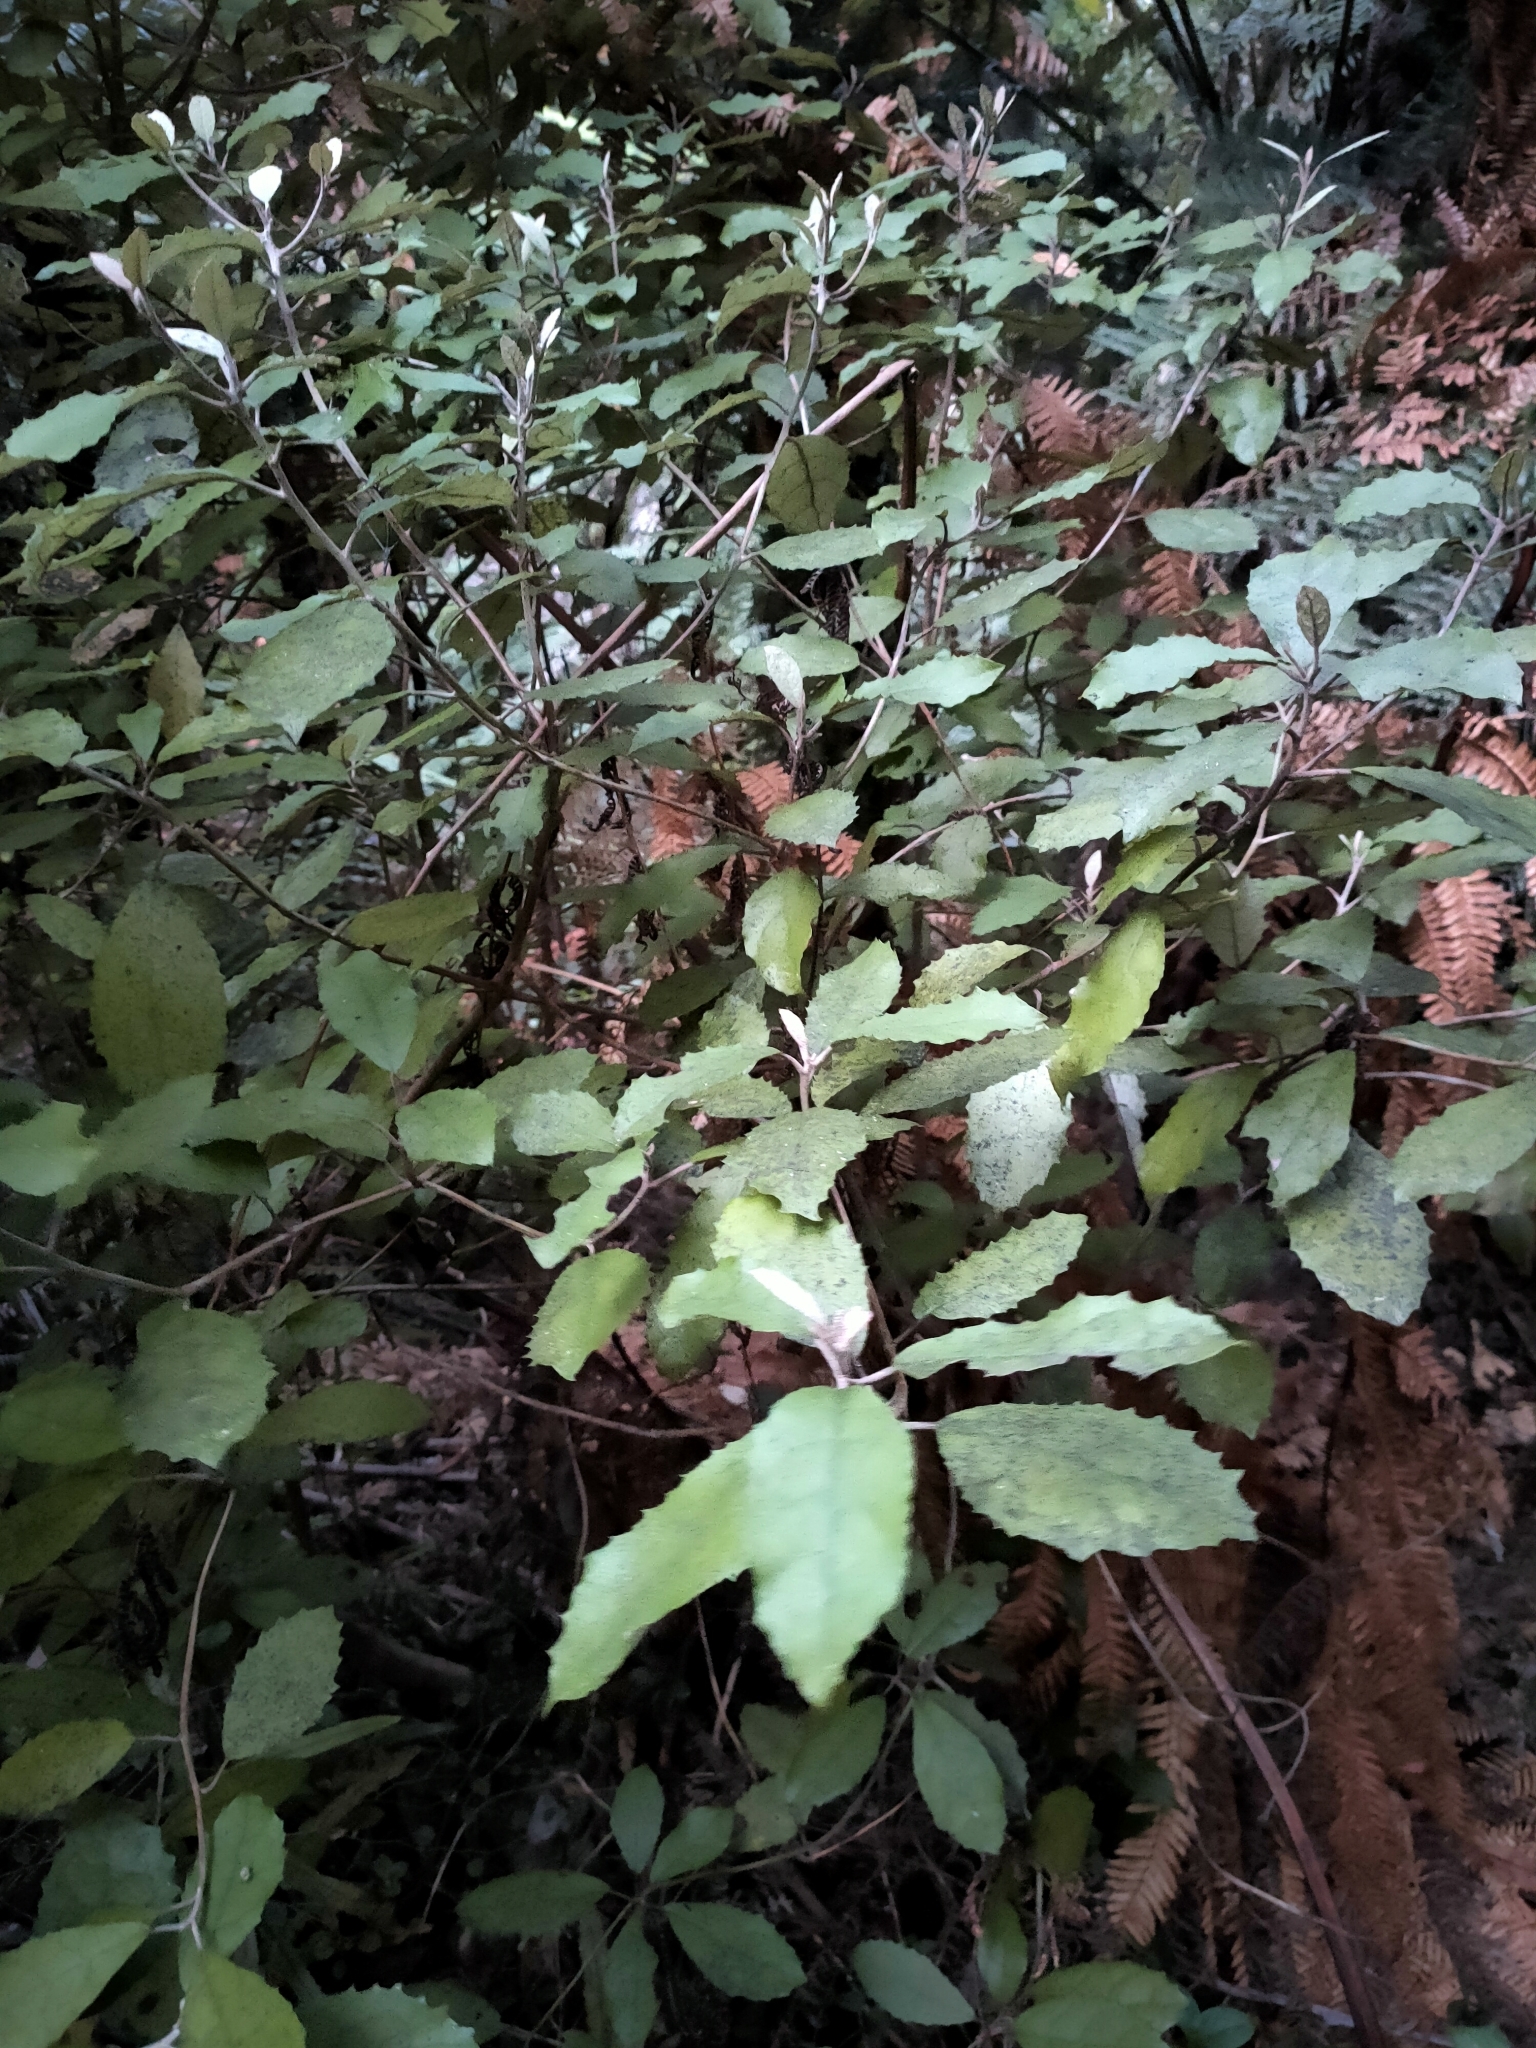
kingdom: Plantae
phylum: Tracheophyta
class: Magnoliopsida
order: Asterales
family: Asteraceae
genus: Olearia
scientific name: Olearia rani
